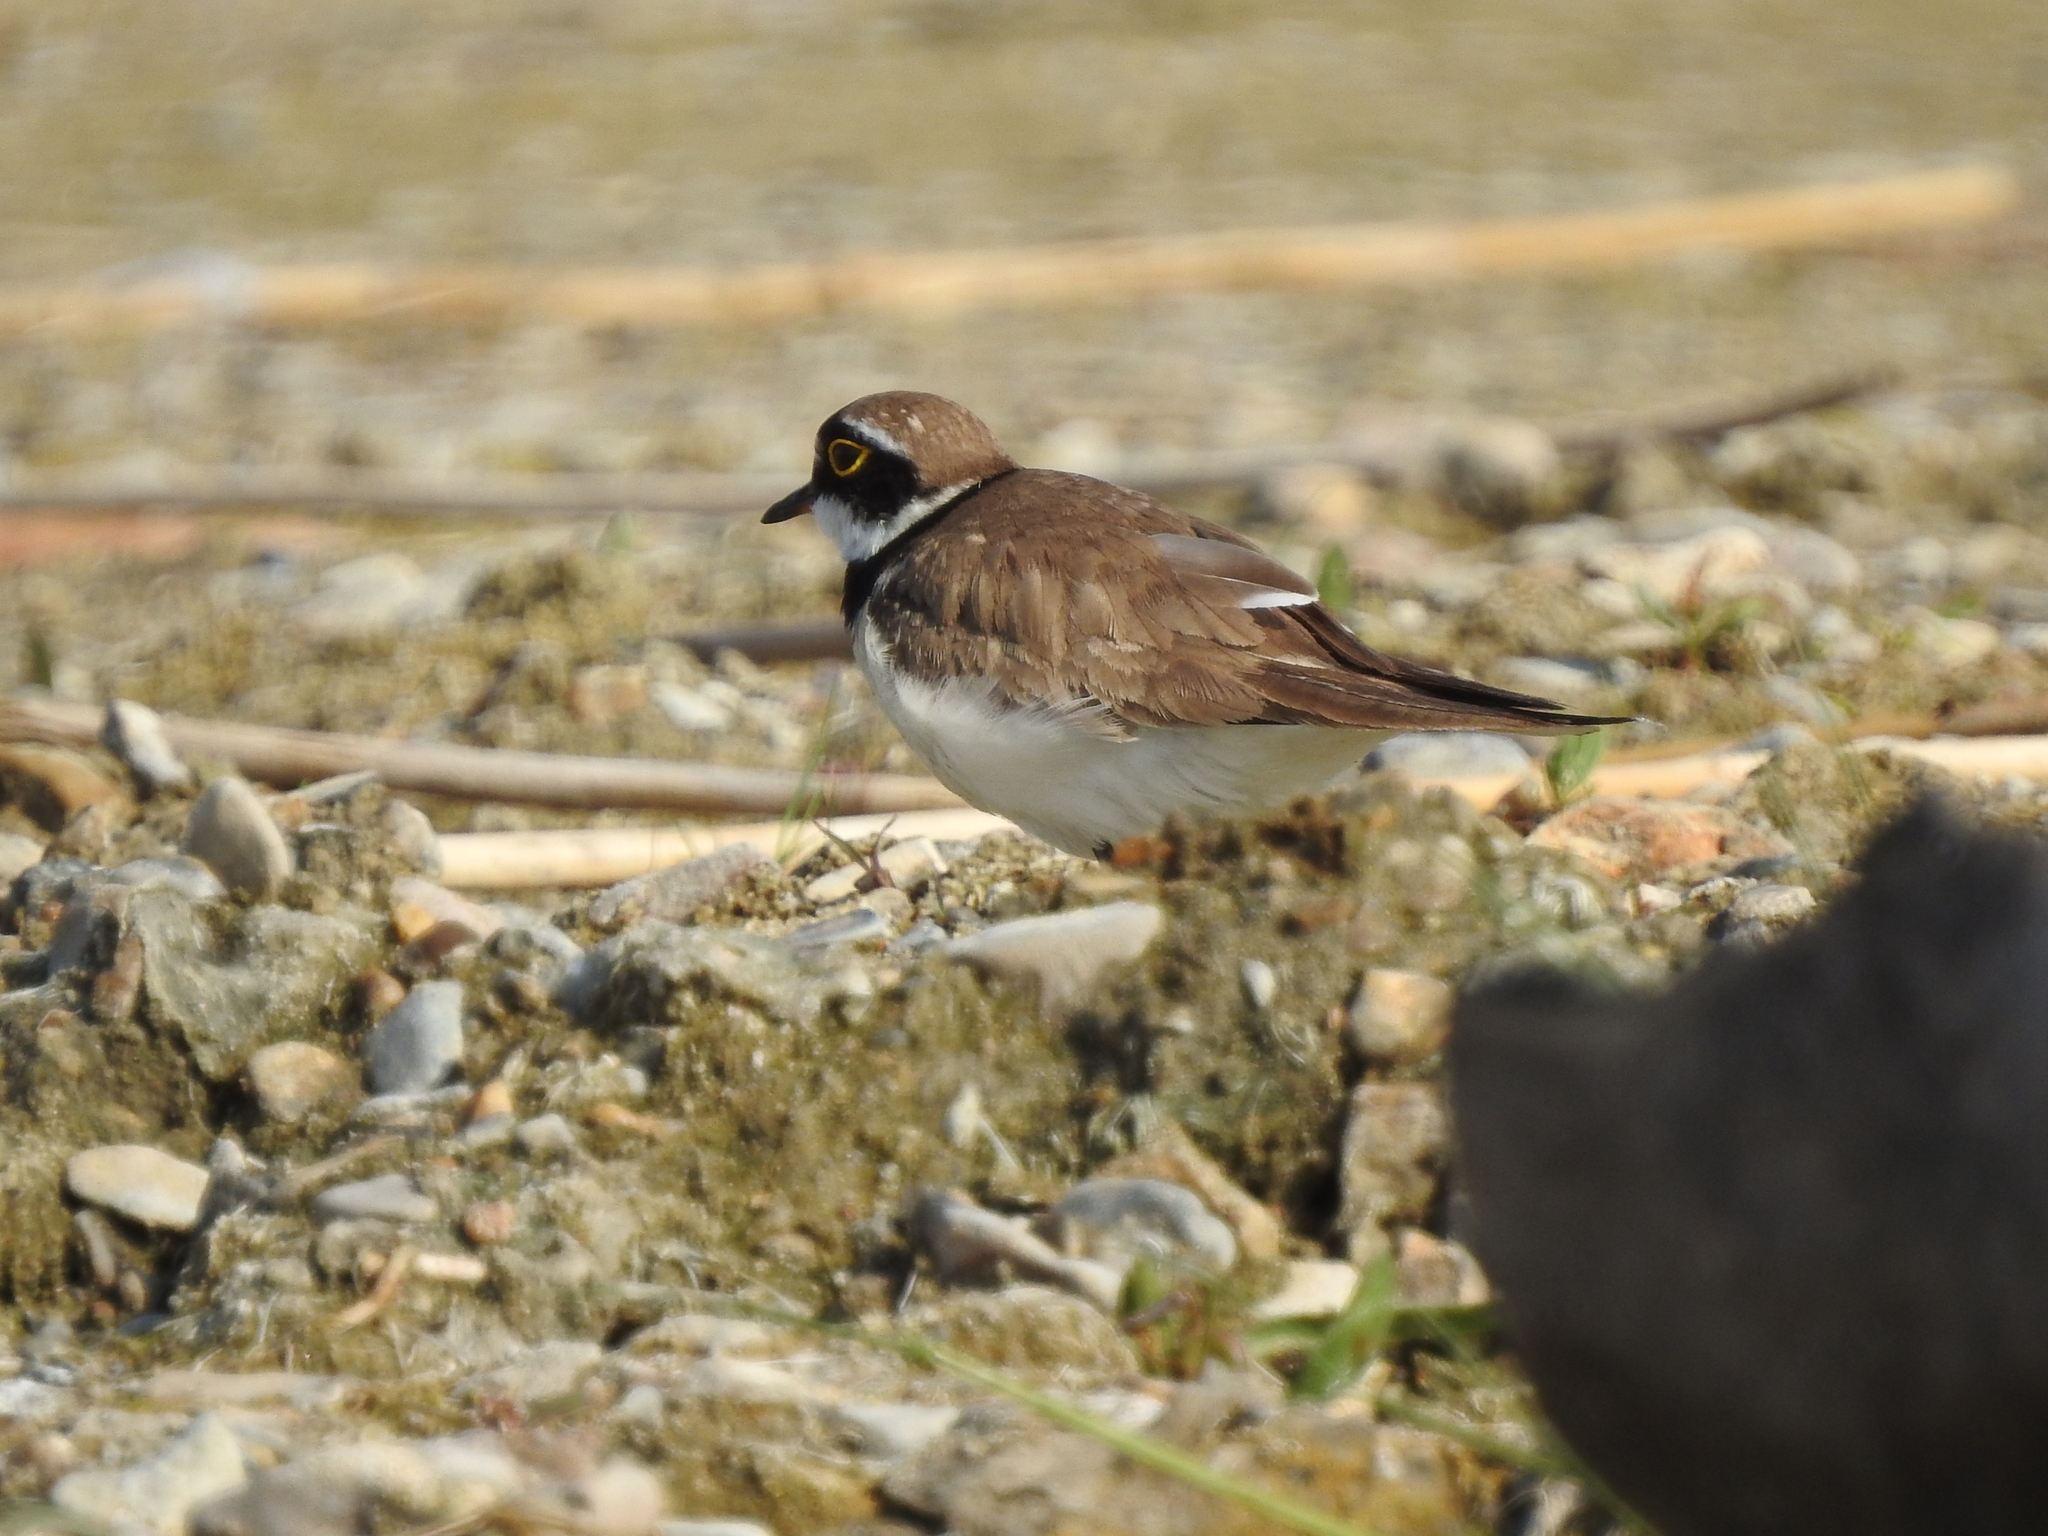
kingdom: Animalia
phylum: Chordata
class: Aves
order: Charadriiformes
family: Charadriidae
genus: Charadrius
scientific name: Charadrius dubius
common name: Little ringed plover
